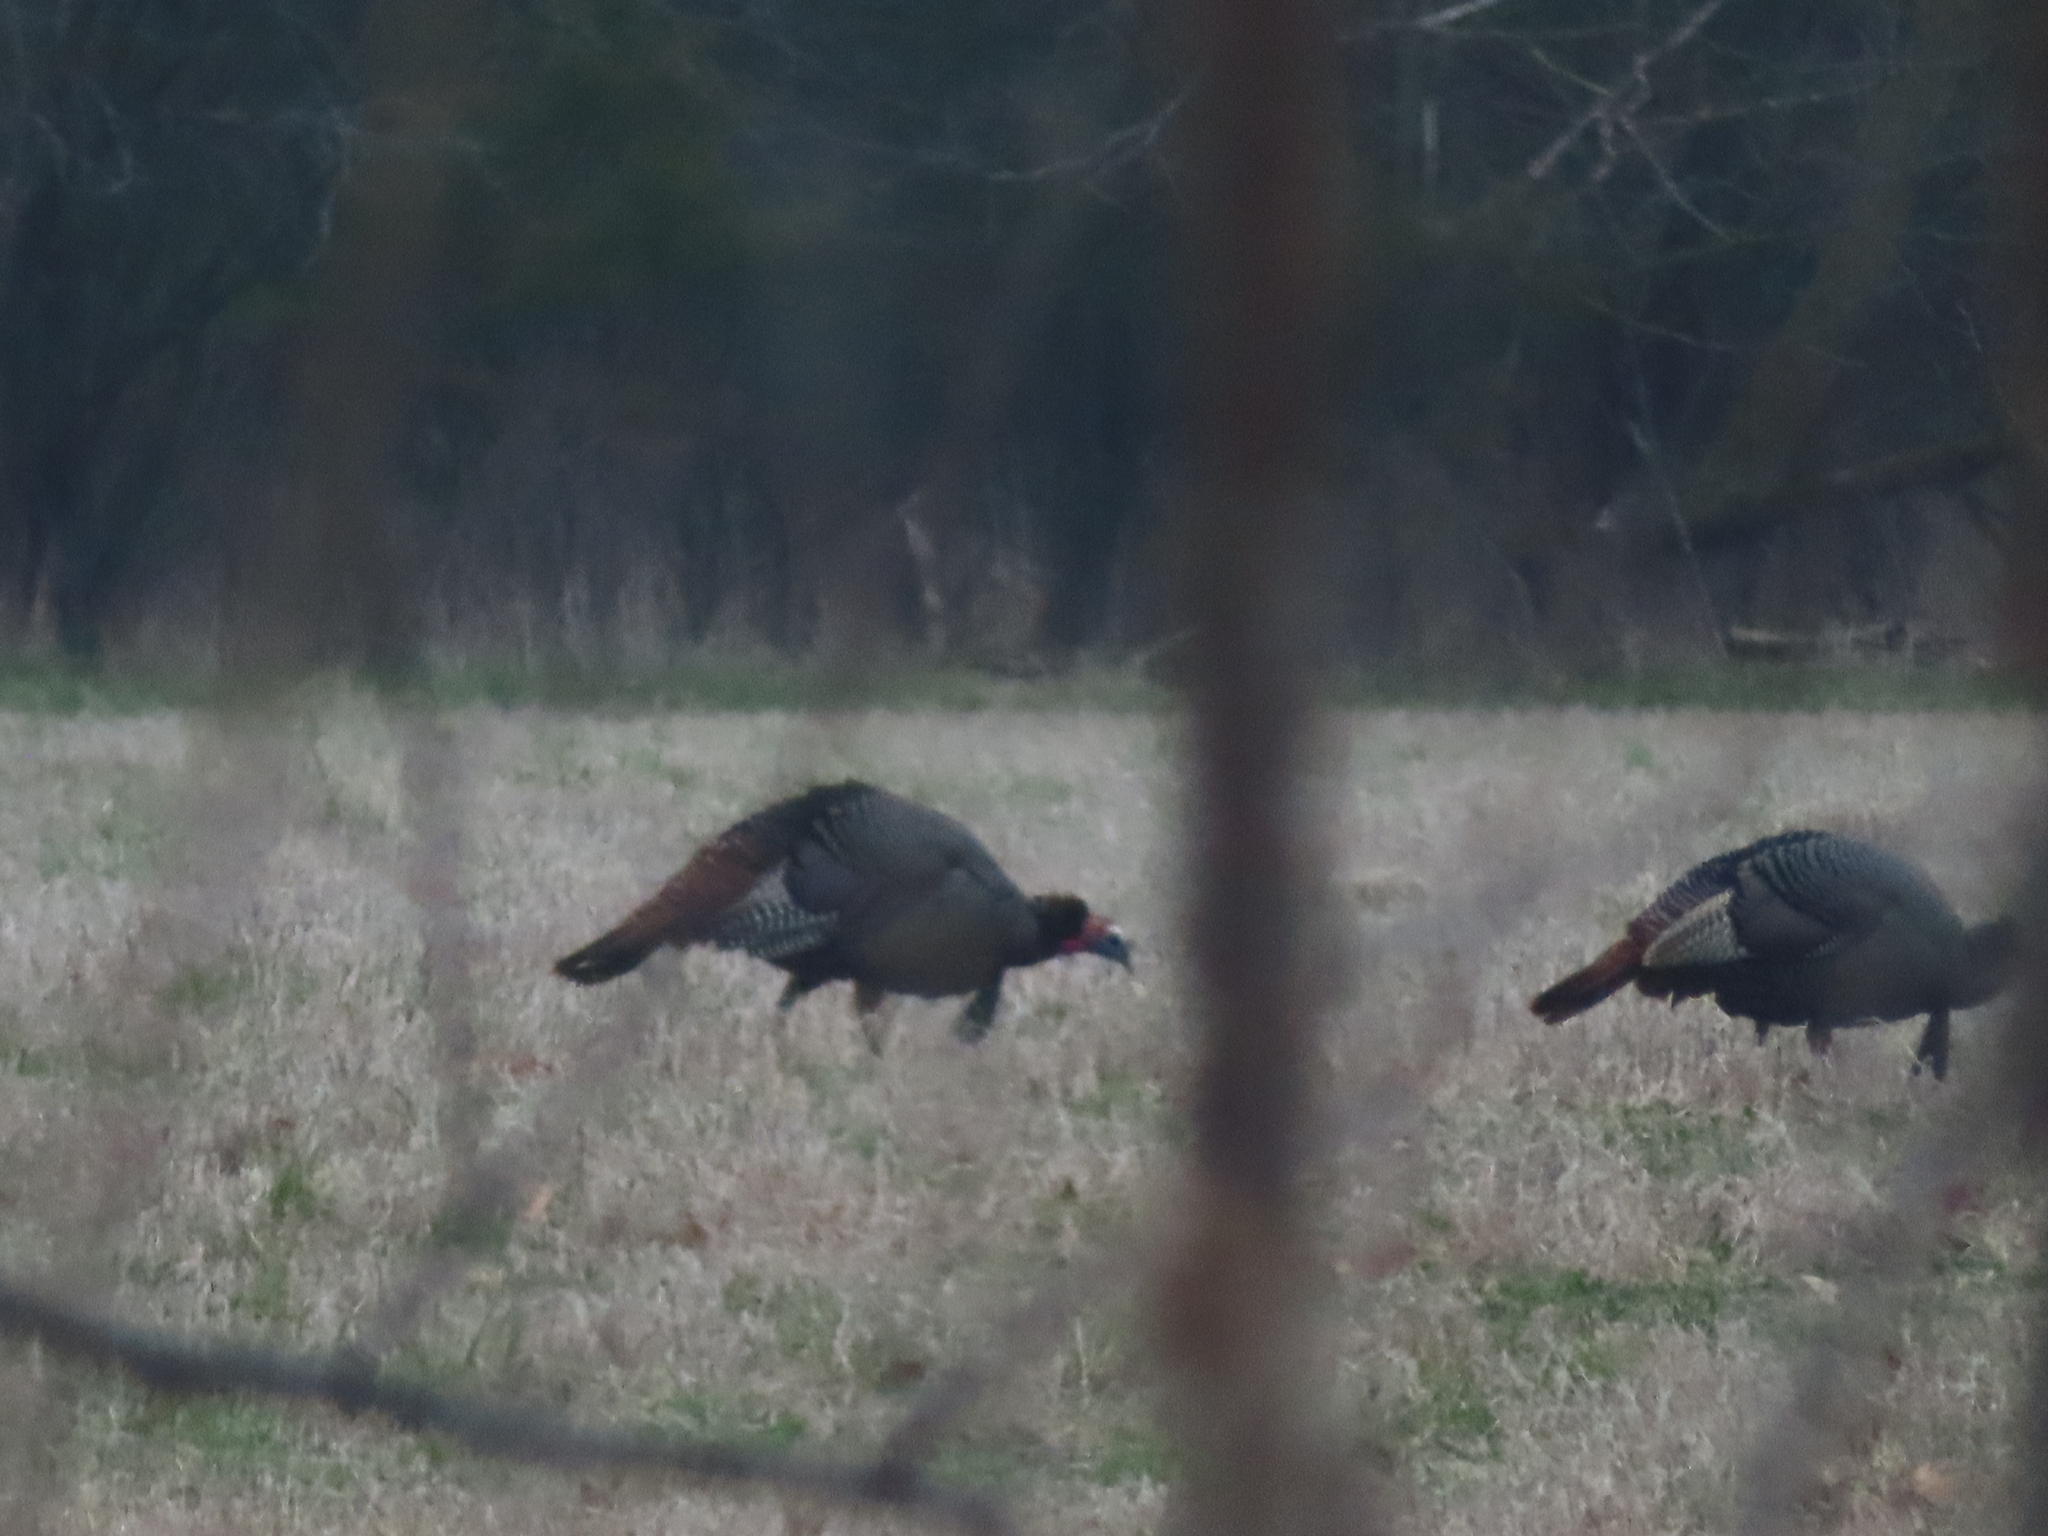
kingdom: Animalia
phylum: Chordata
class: Aves
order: Galliformes
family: Phasianidae
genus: Meleagris
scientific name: Meleagris gallopavo
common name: Wild turkey
